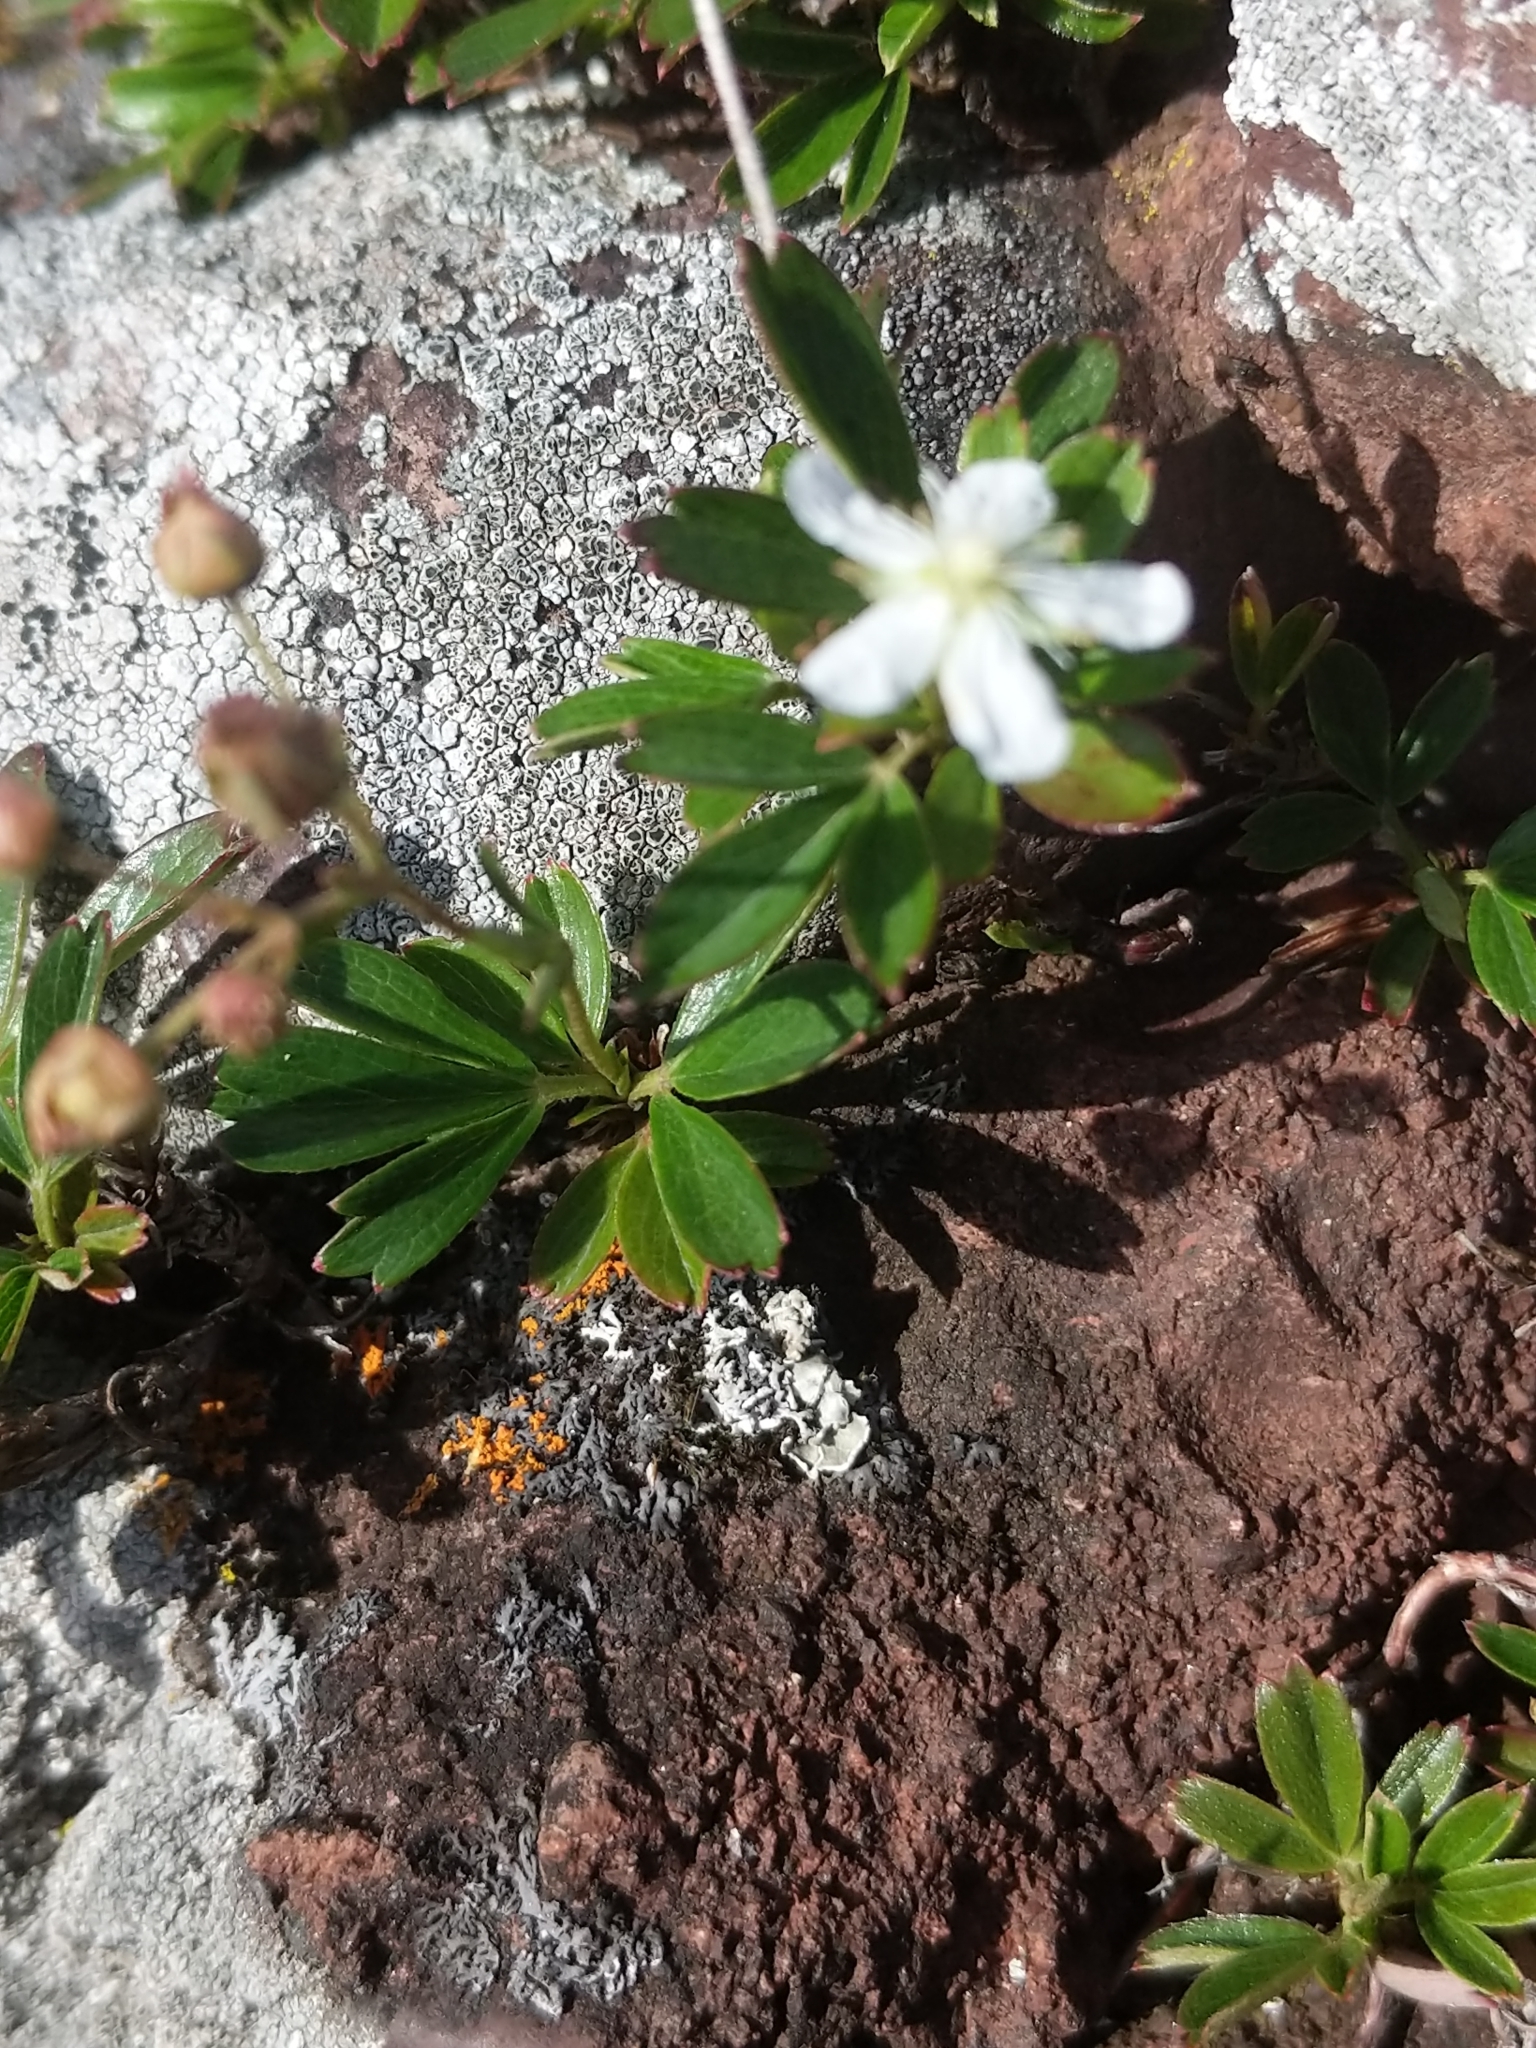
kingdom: Plantae
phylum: Tracheophyta
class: Magnoliopsida
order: Rosales
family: Rosaceae
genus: Sibbaldia
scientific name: Sibbaldia tridentata
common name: Three-toothed cinquefoil
